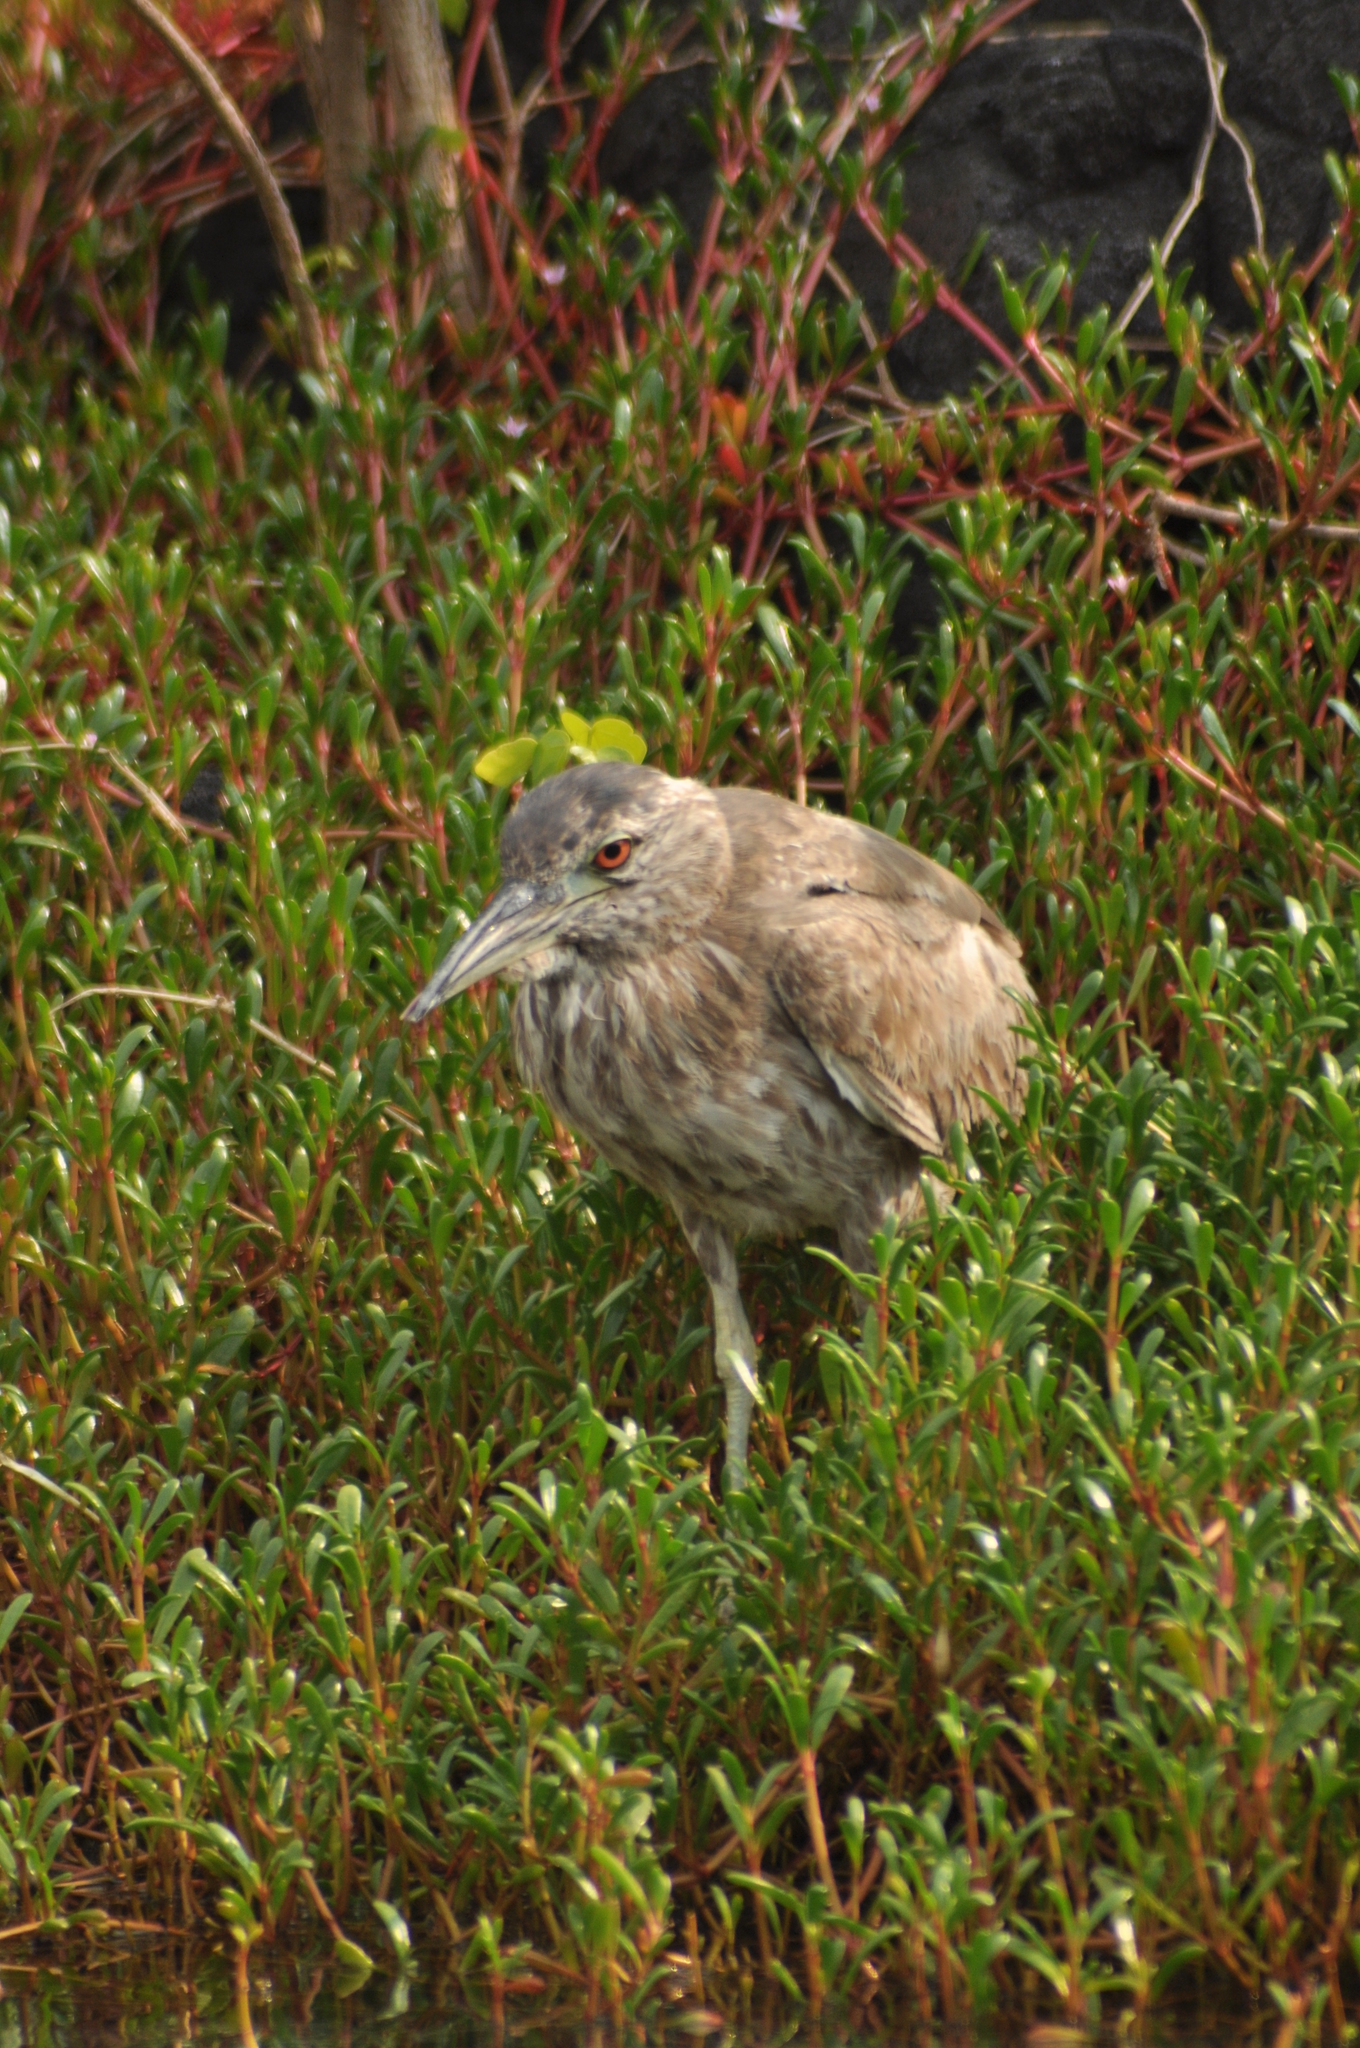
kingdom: Animalia
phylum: Chordata
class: Aves
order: Pelecaniformes
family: Ardeidae
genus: Nycticorax
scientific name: Nycticorax nycticorax
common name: Black-crowned night heron
